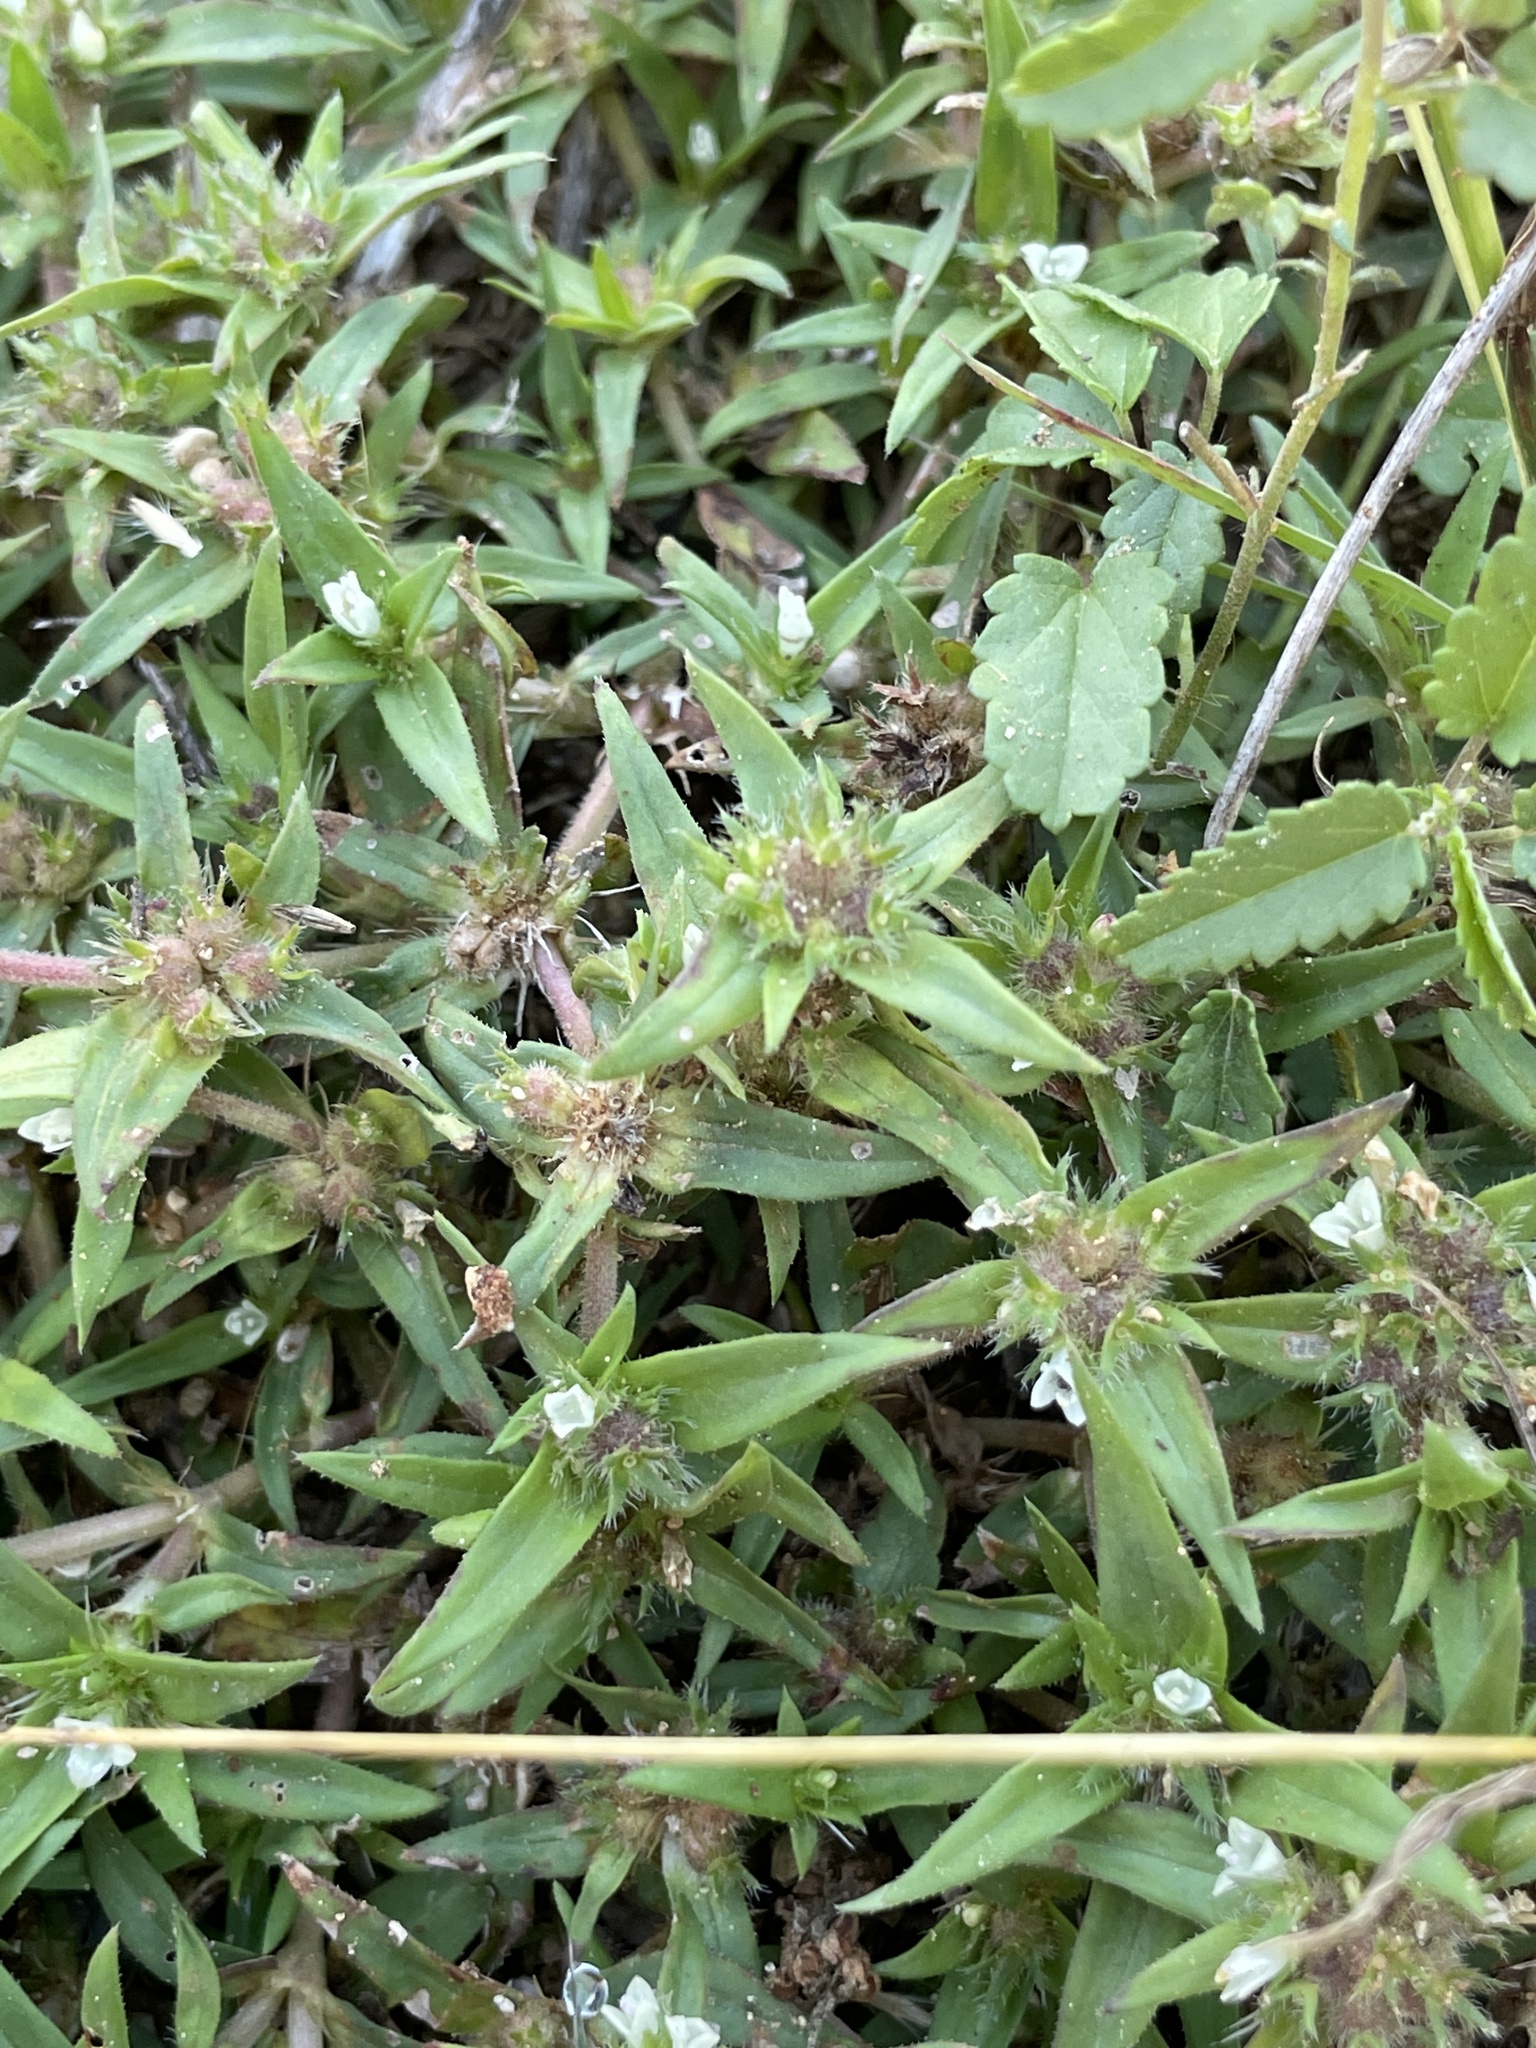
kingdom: Plantae
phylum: Tracheophyta
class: Magnoliopsida
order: Gentianales
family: Rubiaceae
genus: Richardia
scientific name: Richardia tricocca
